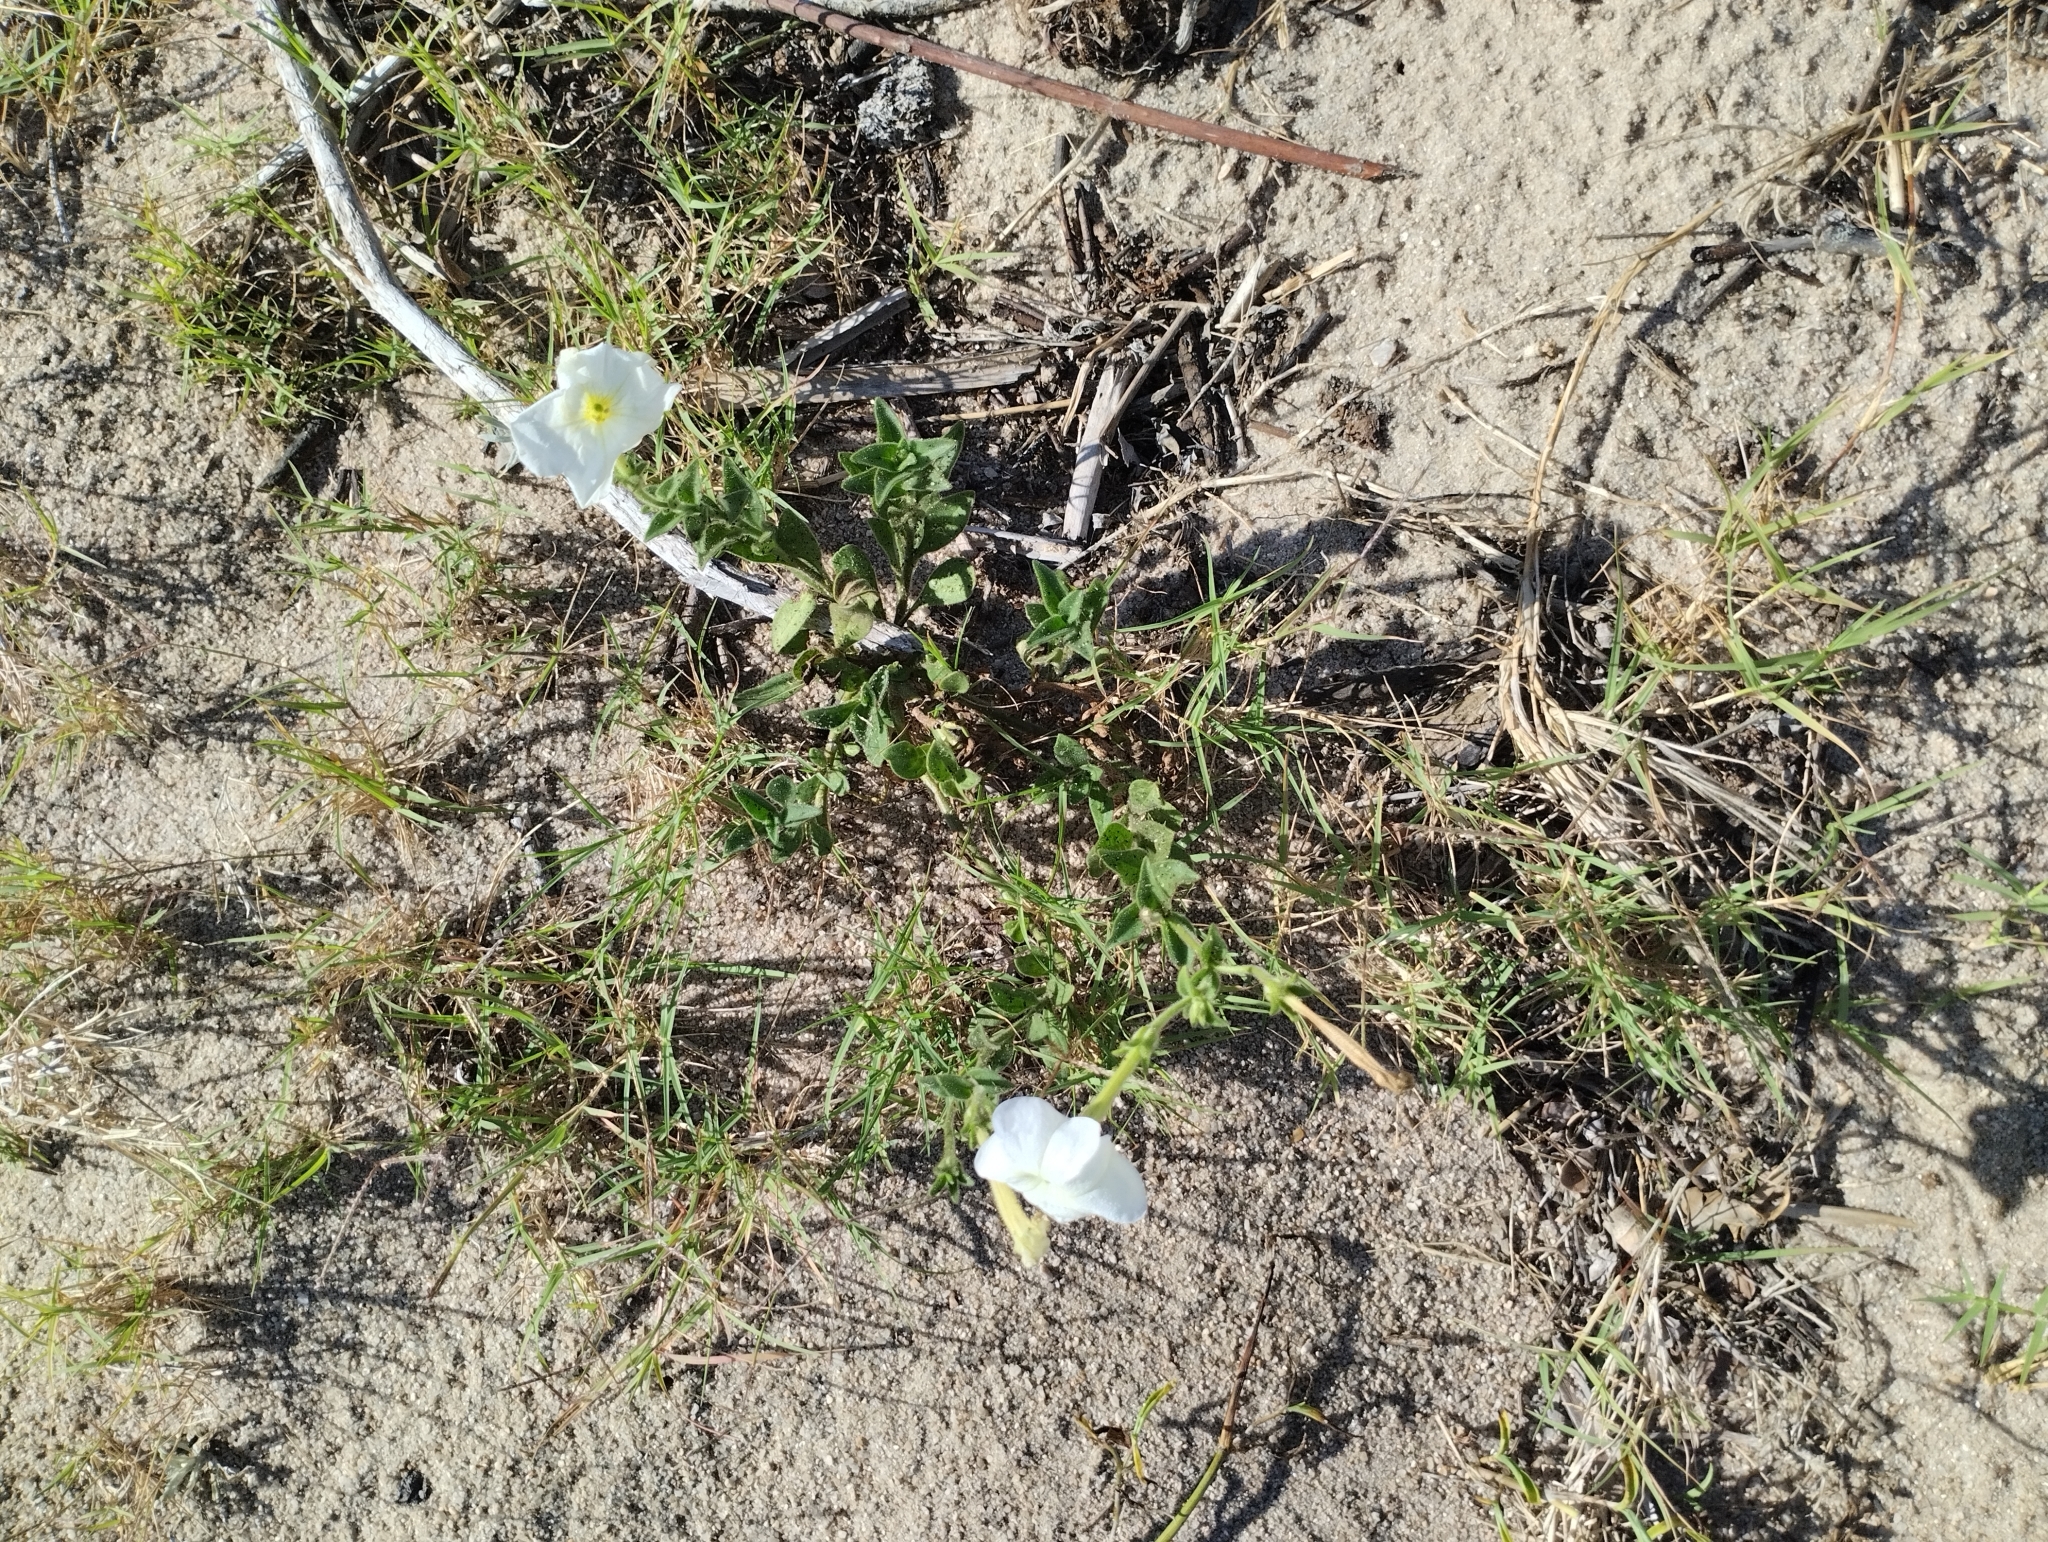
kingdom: Plantae
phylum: Tracheophyta
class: Magnoliopsida
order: Solanales
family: Solanaceae
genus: Petunia
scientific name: Petunia axillaris
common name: Large white petunia
